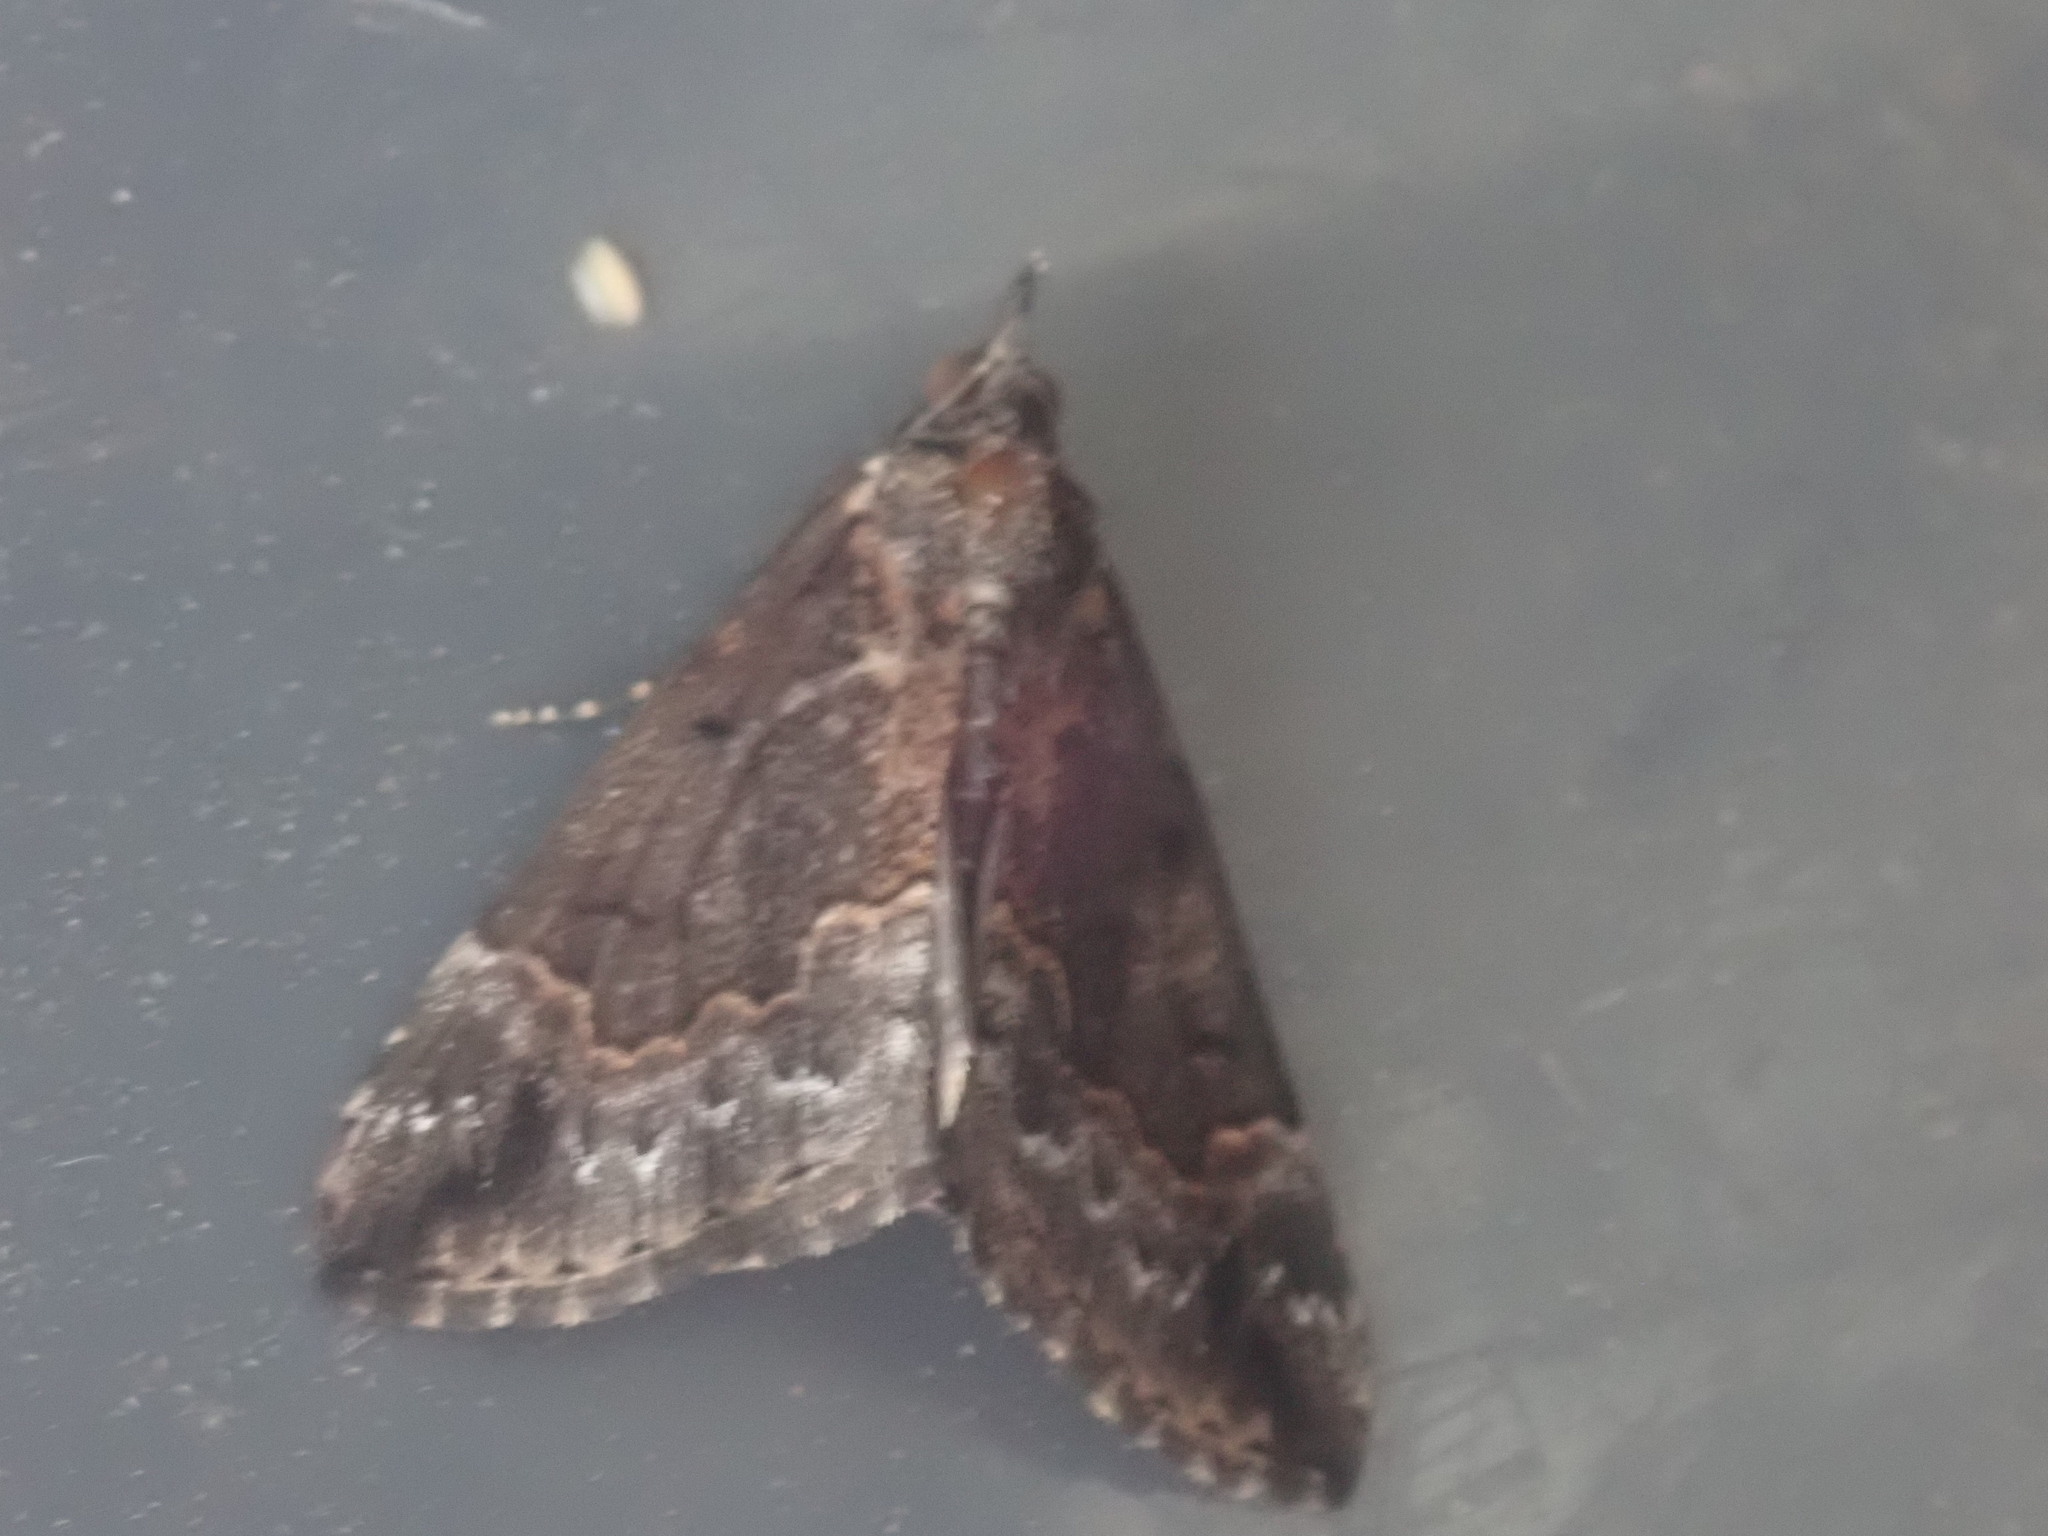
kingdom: Animalia
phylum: Arthropoda
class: Insecta
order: Lepidoptera
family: Erebidae
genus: Hypena
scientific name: Hypena baltimoralis
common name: Baltimore snout
